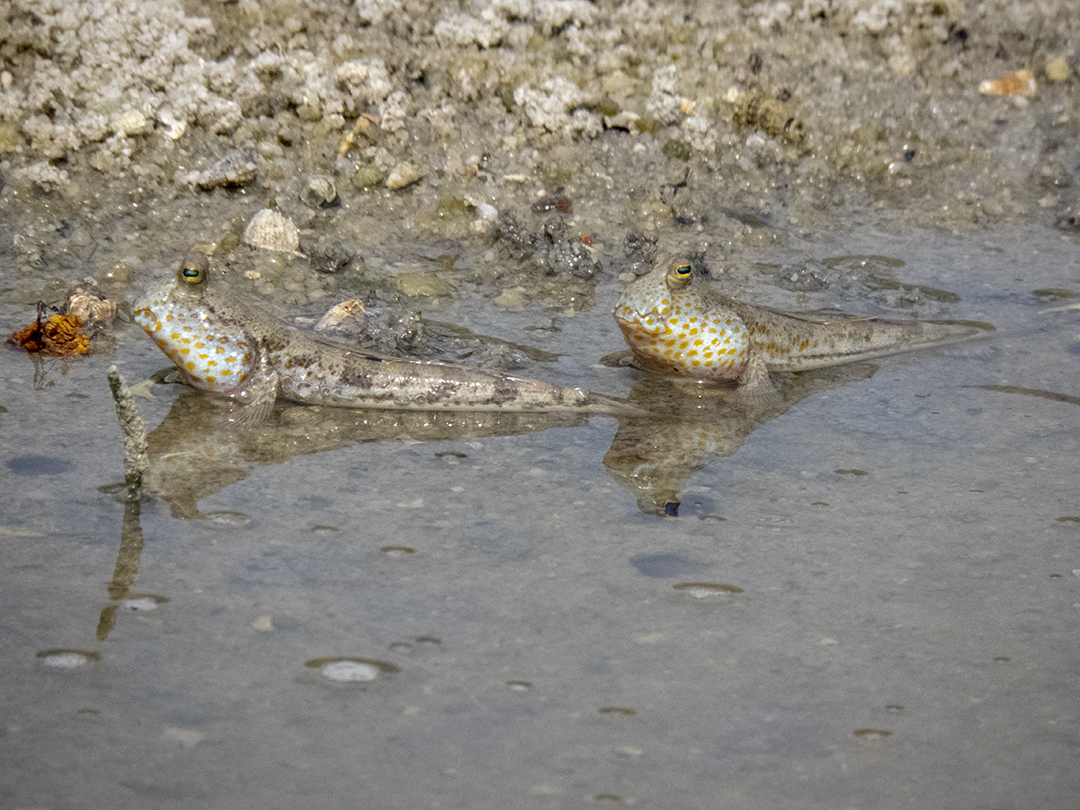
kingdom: Animalia
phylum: Chordata
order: Perciformes
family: Gobiidae
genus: Periophthalmus
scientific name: Periophthalmus chrysospilos
